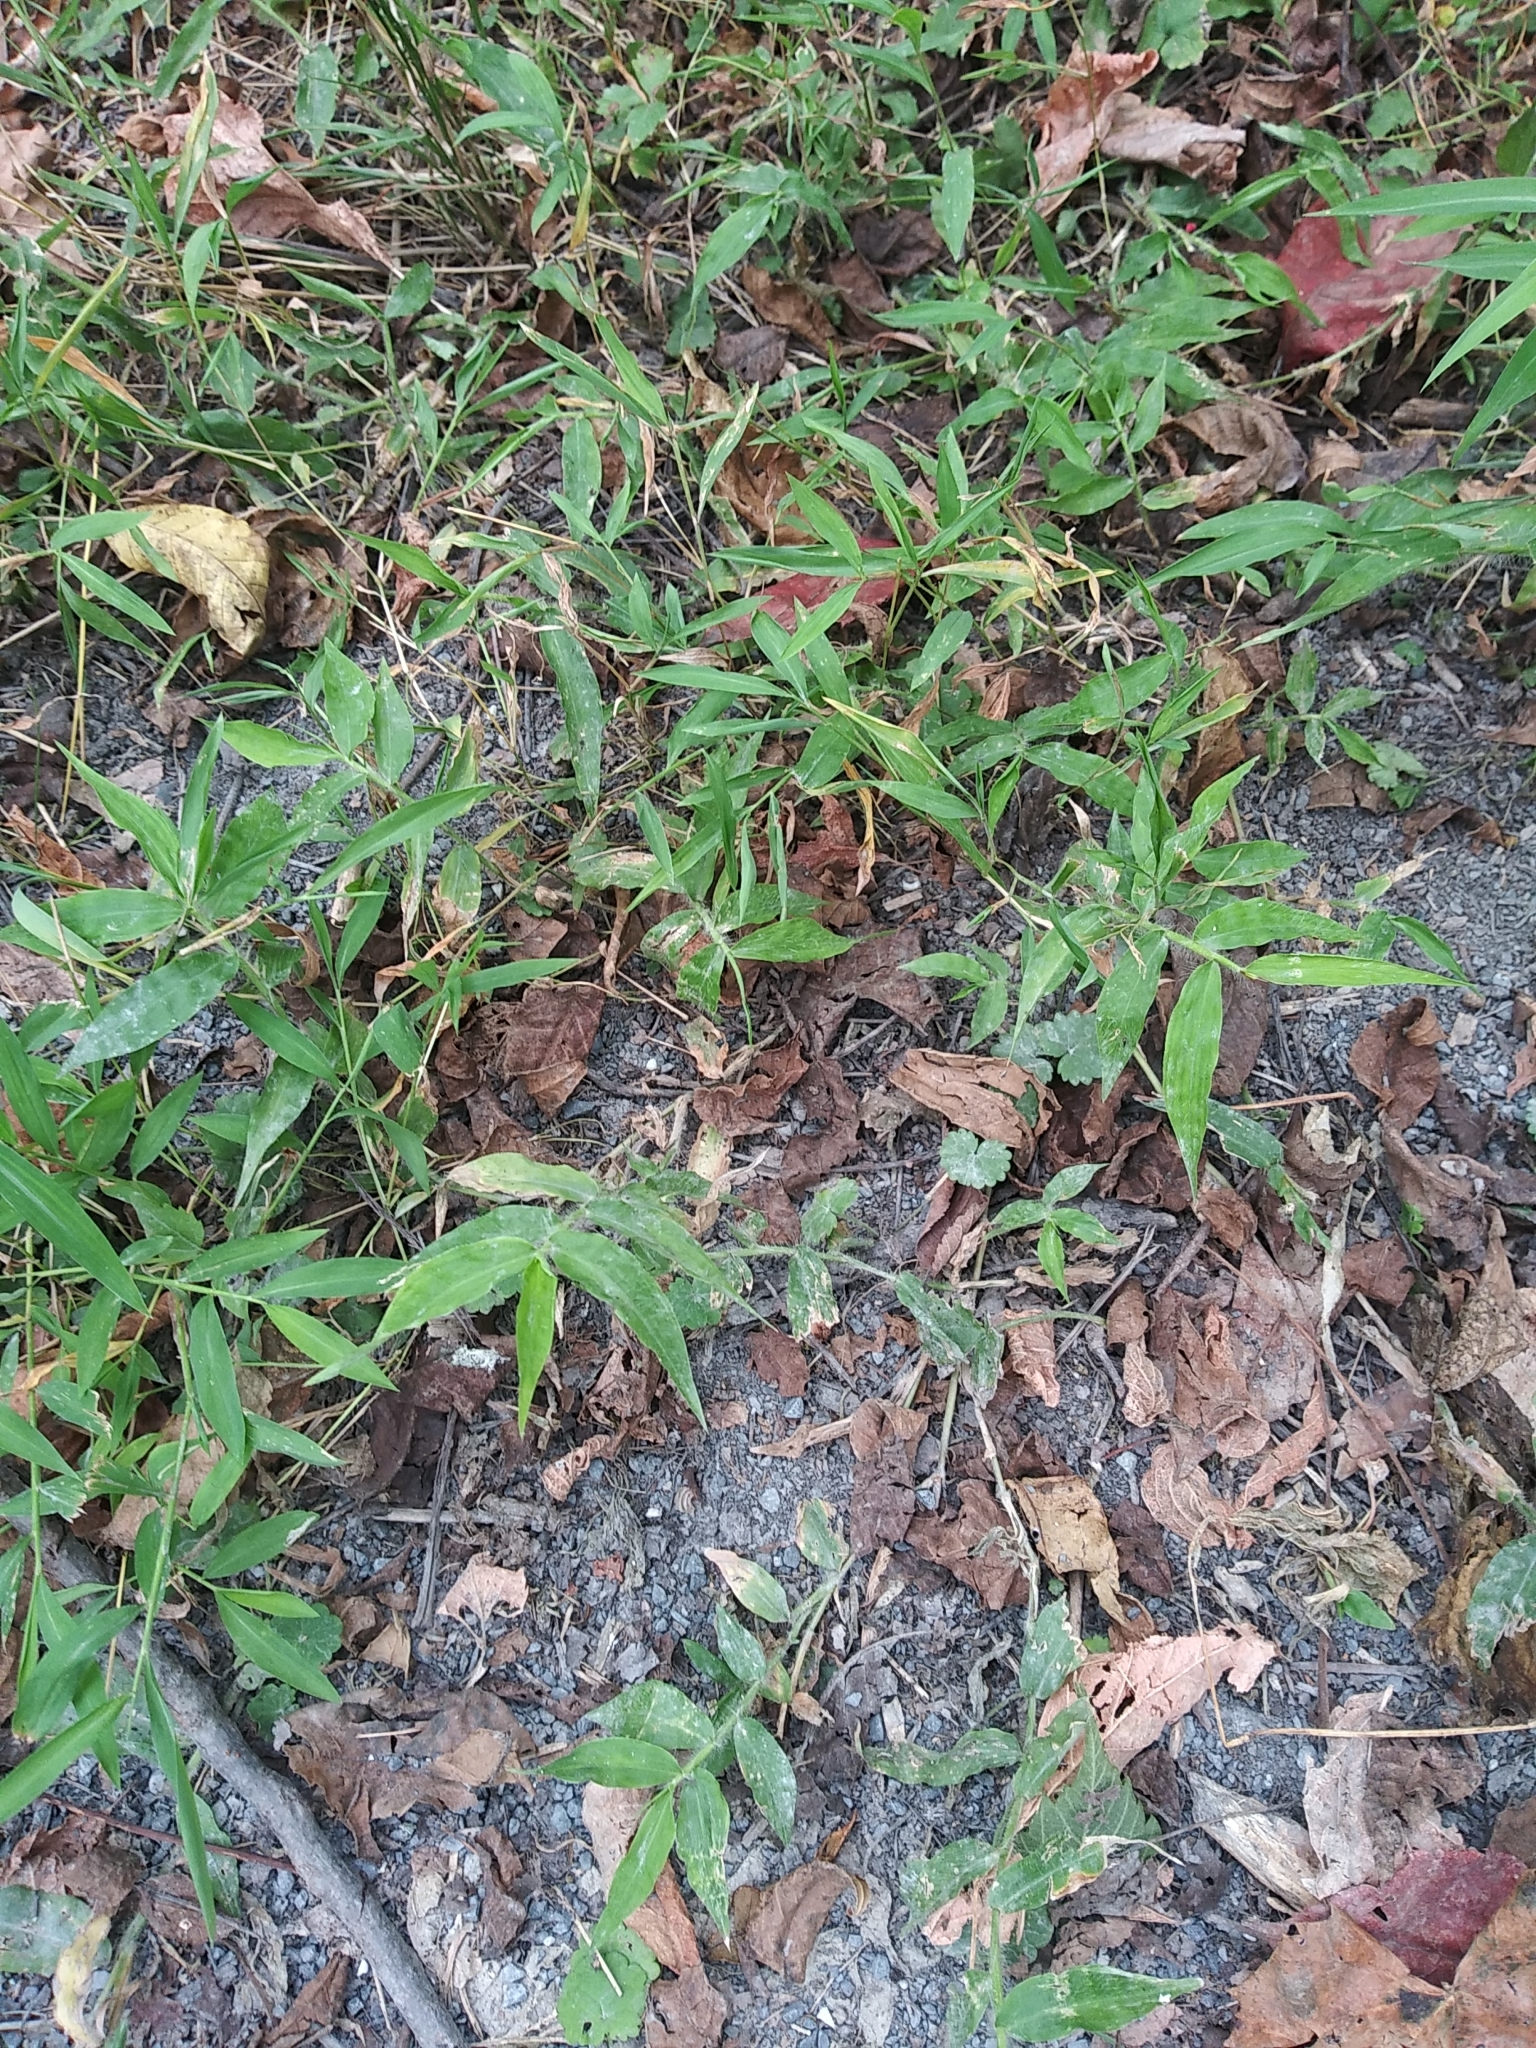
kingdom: Plantae
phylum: Tracheophyta
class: Liliopsida
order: Poales
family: Poaceae
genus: Oplismenus
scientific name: Oplismenus undulatifolius
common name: Wavyleaf basketgrass
